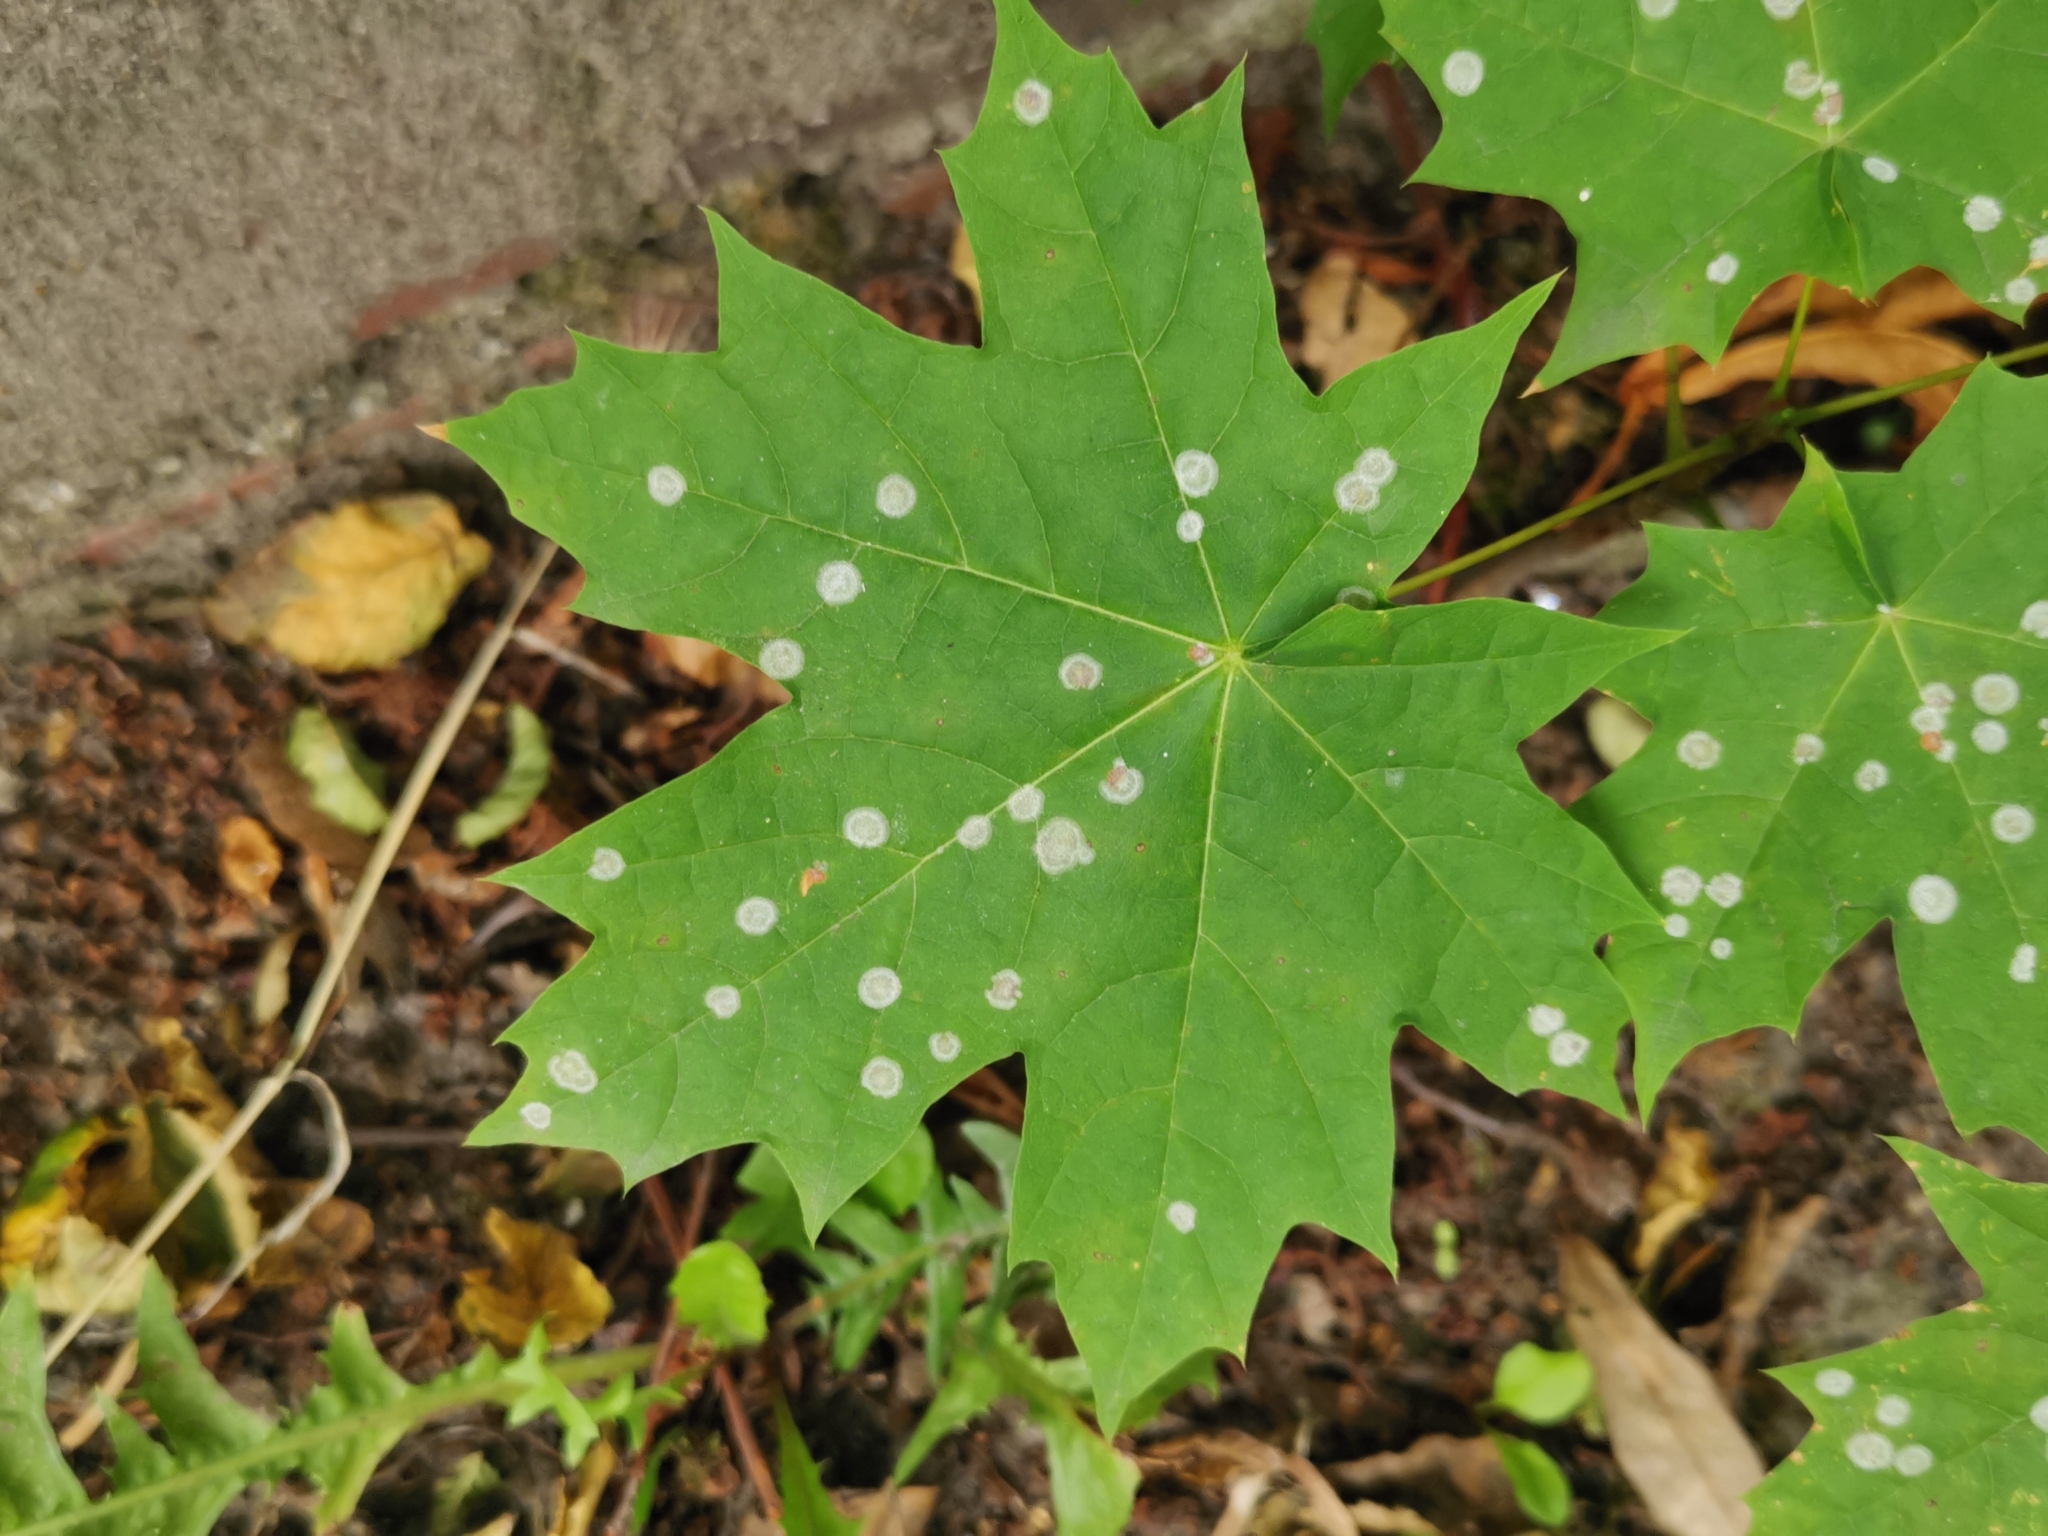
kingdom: Fungi
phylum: Ascomycota
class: Leotiomycetes
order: Helotiales
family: Erysiphaceae
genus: Sawadaea
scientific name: Sawadaea tulasnei
